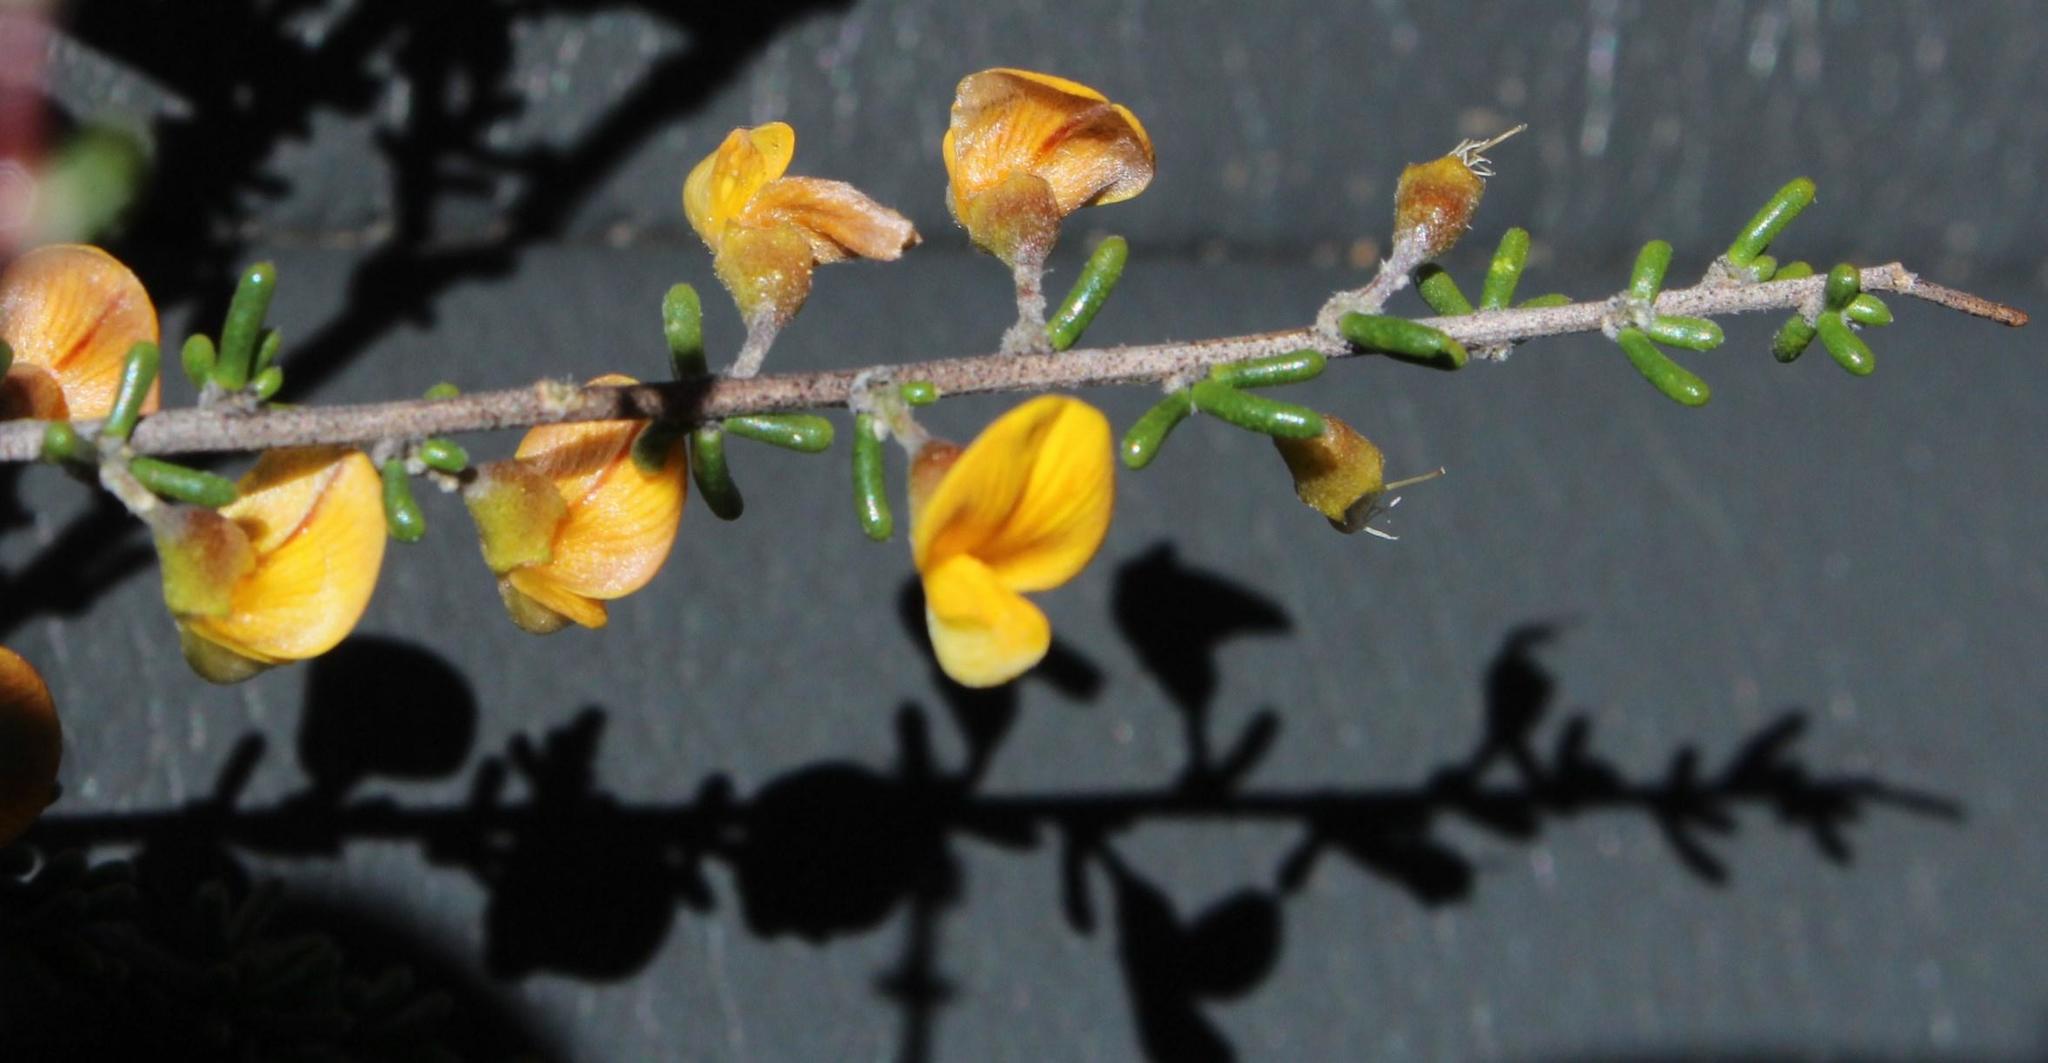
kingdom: Plantae
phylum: Tracheophyta
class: Magnoliopsida
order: Fabales
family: Fabaceae
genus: Aspalathus
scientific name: Aspalathus spinescens
